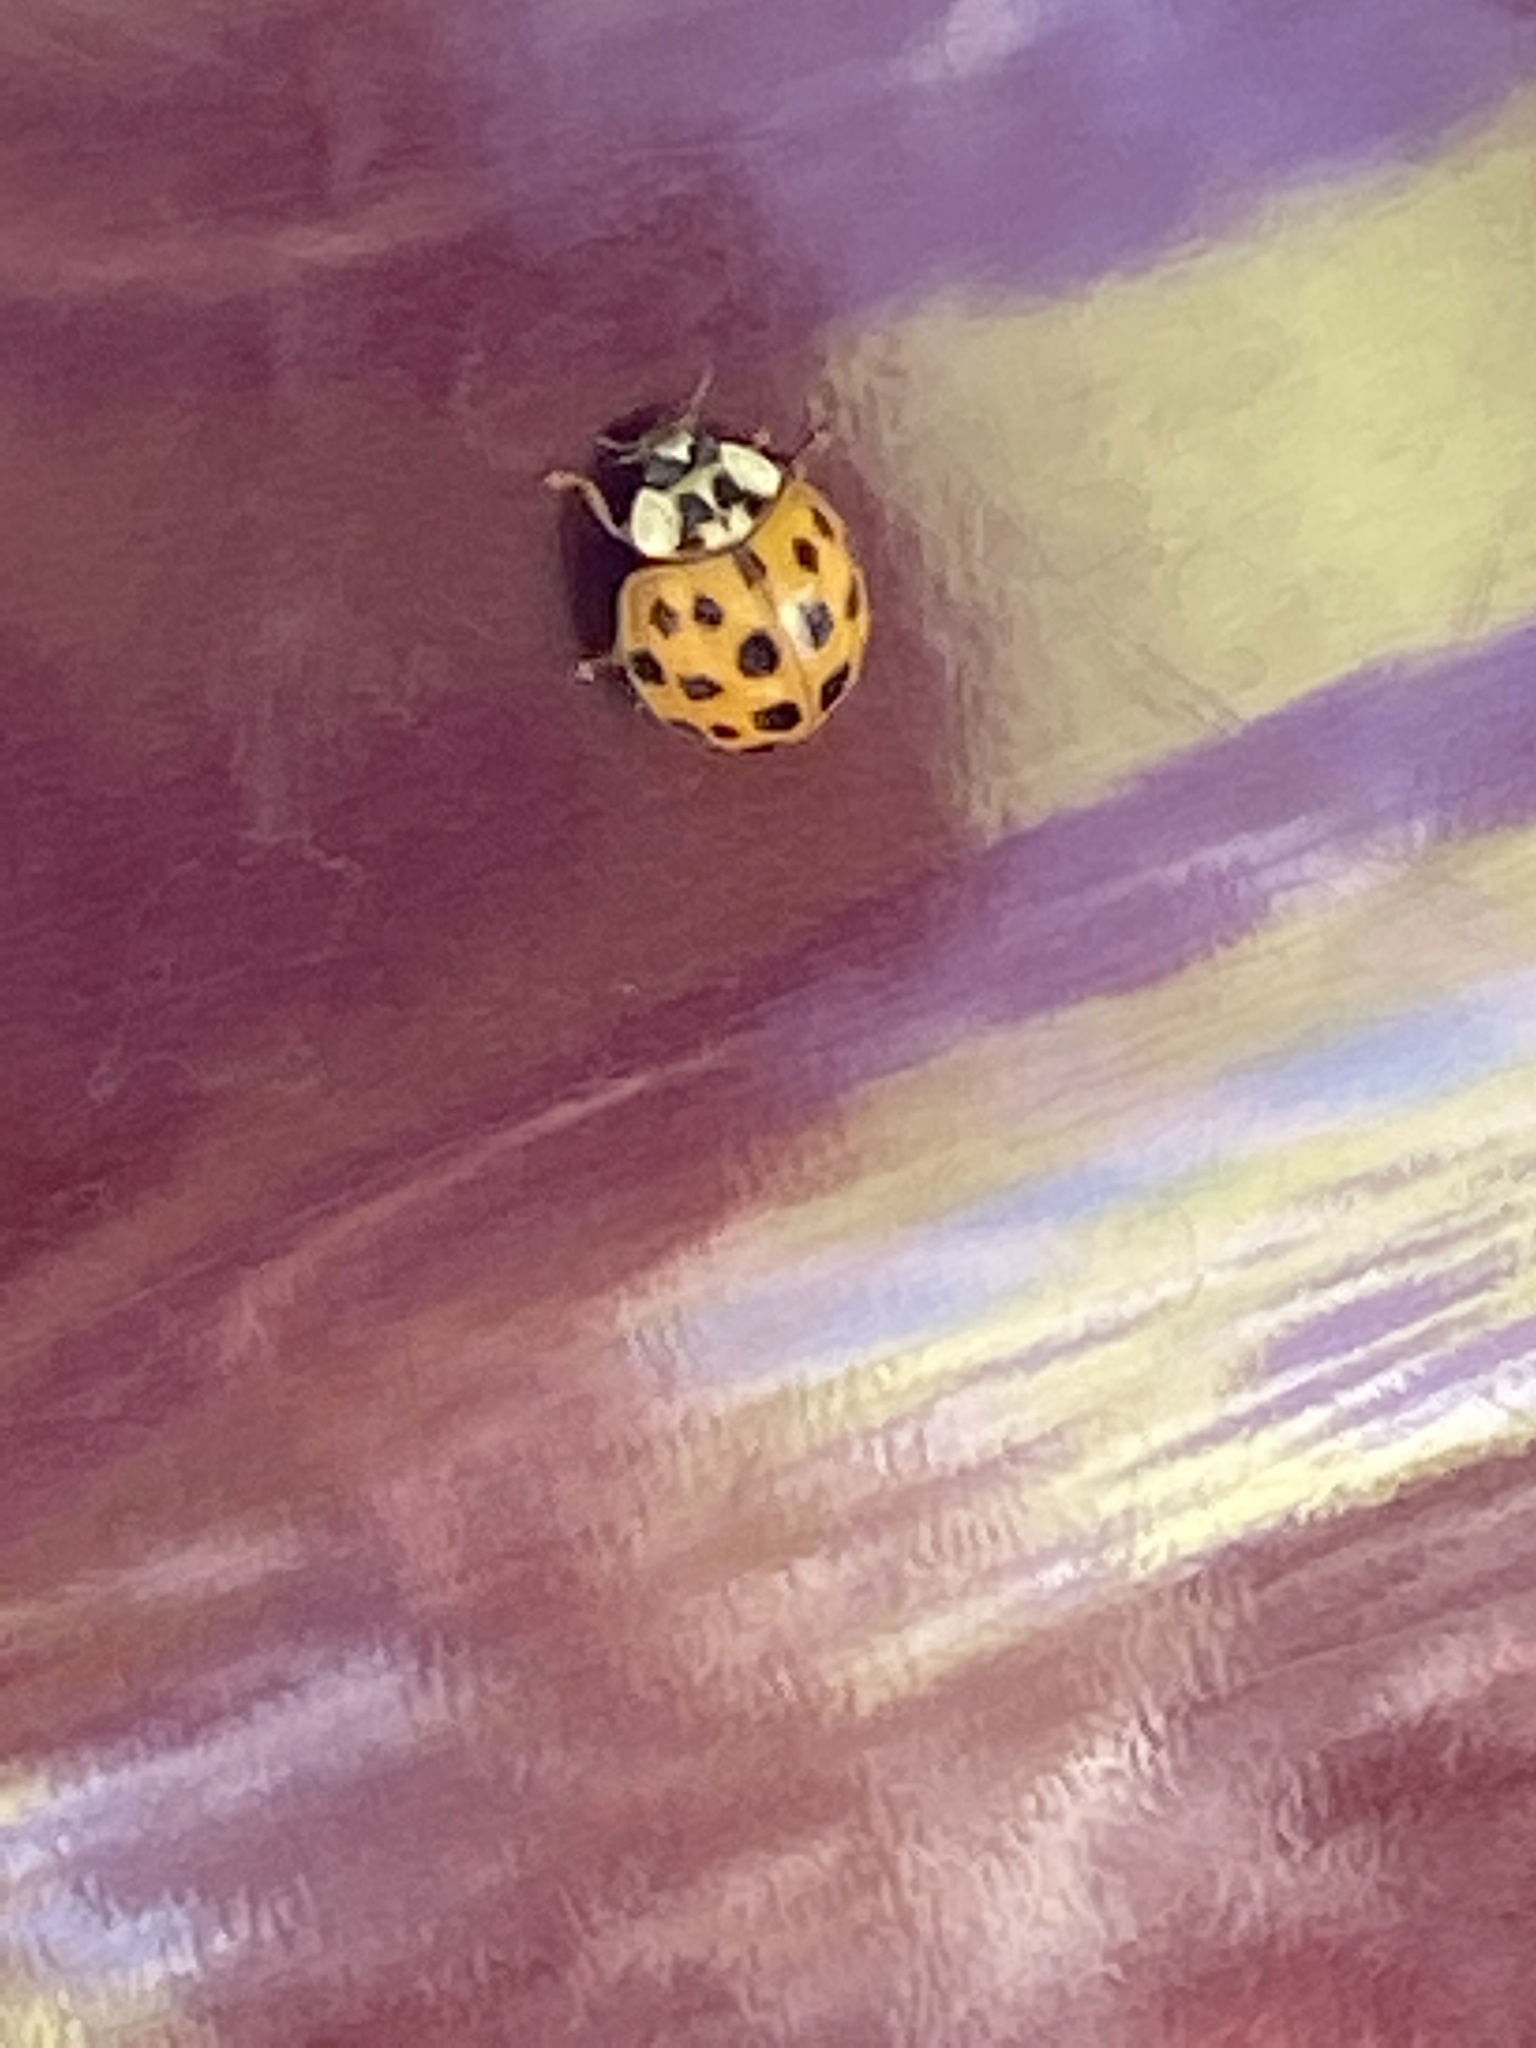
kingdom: Animalia
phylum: Arthropoda
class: Insecta
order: Coleoptera
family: Coccinellidae
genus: Harmonia
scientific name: Harmonia axyridis
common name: Harlequin ladybird
